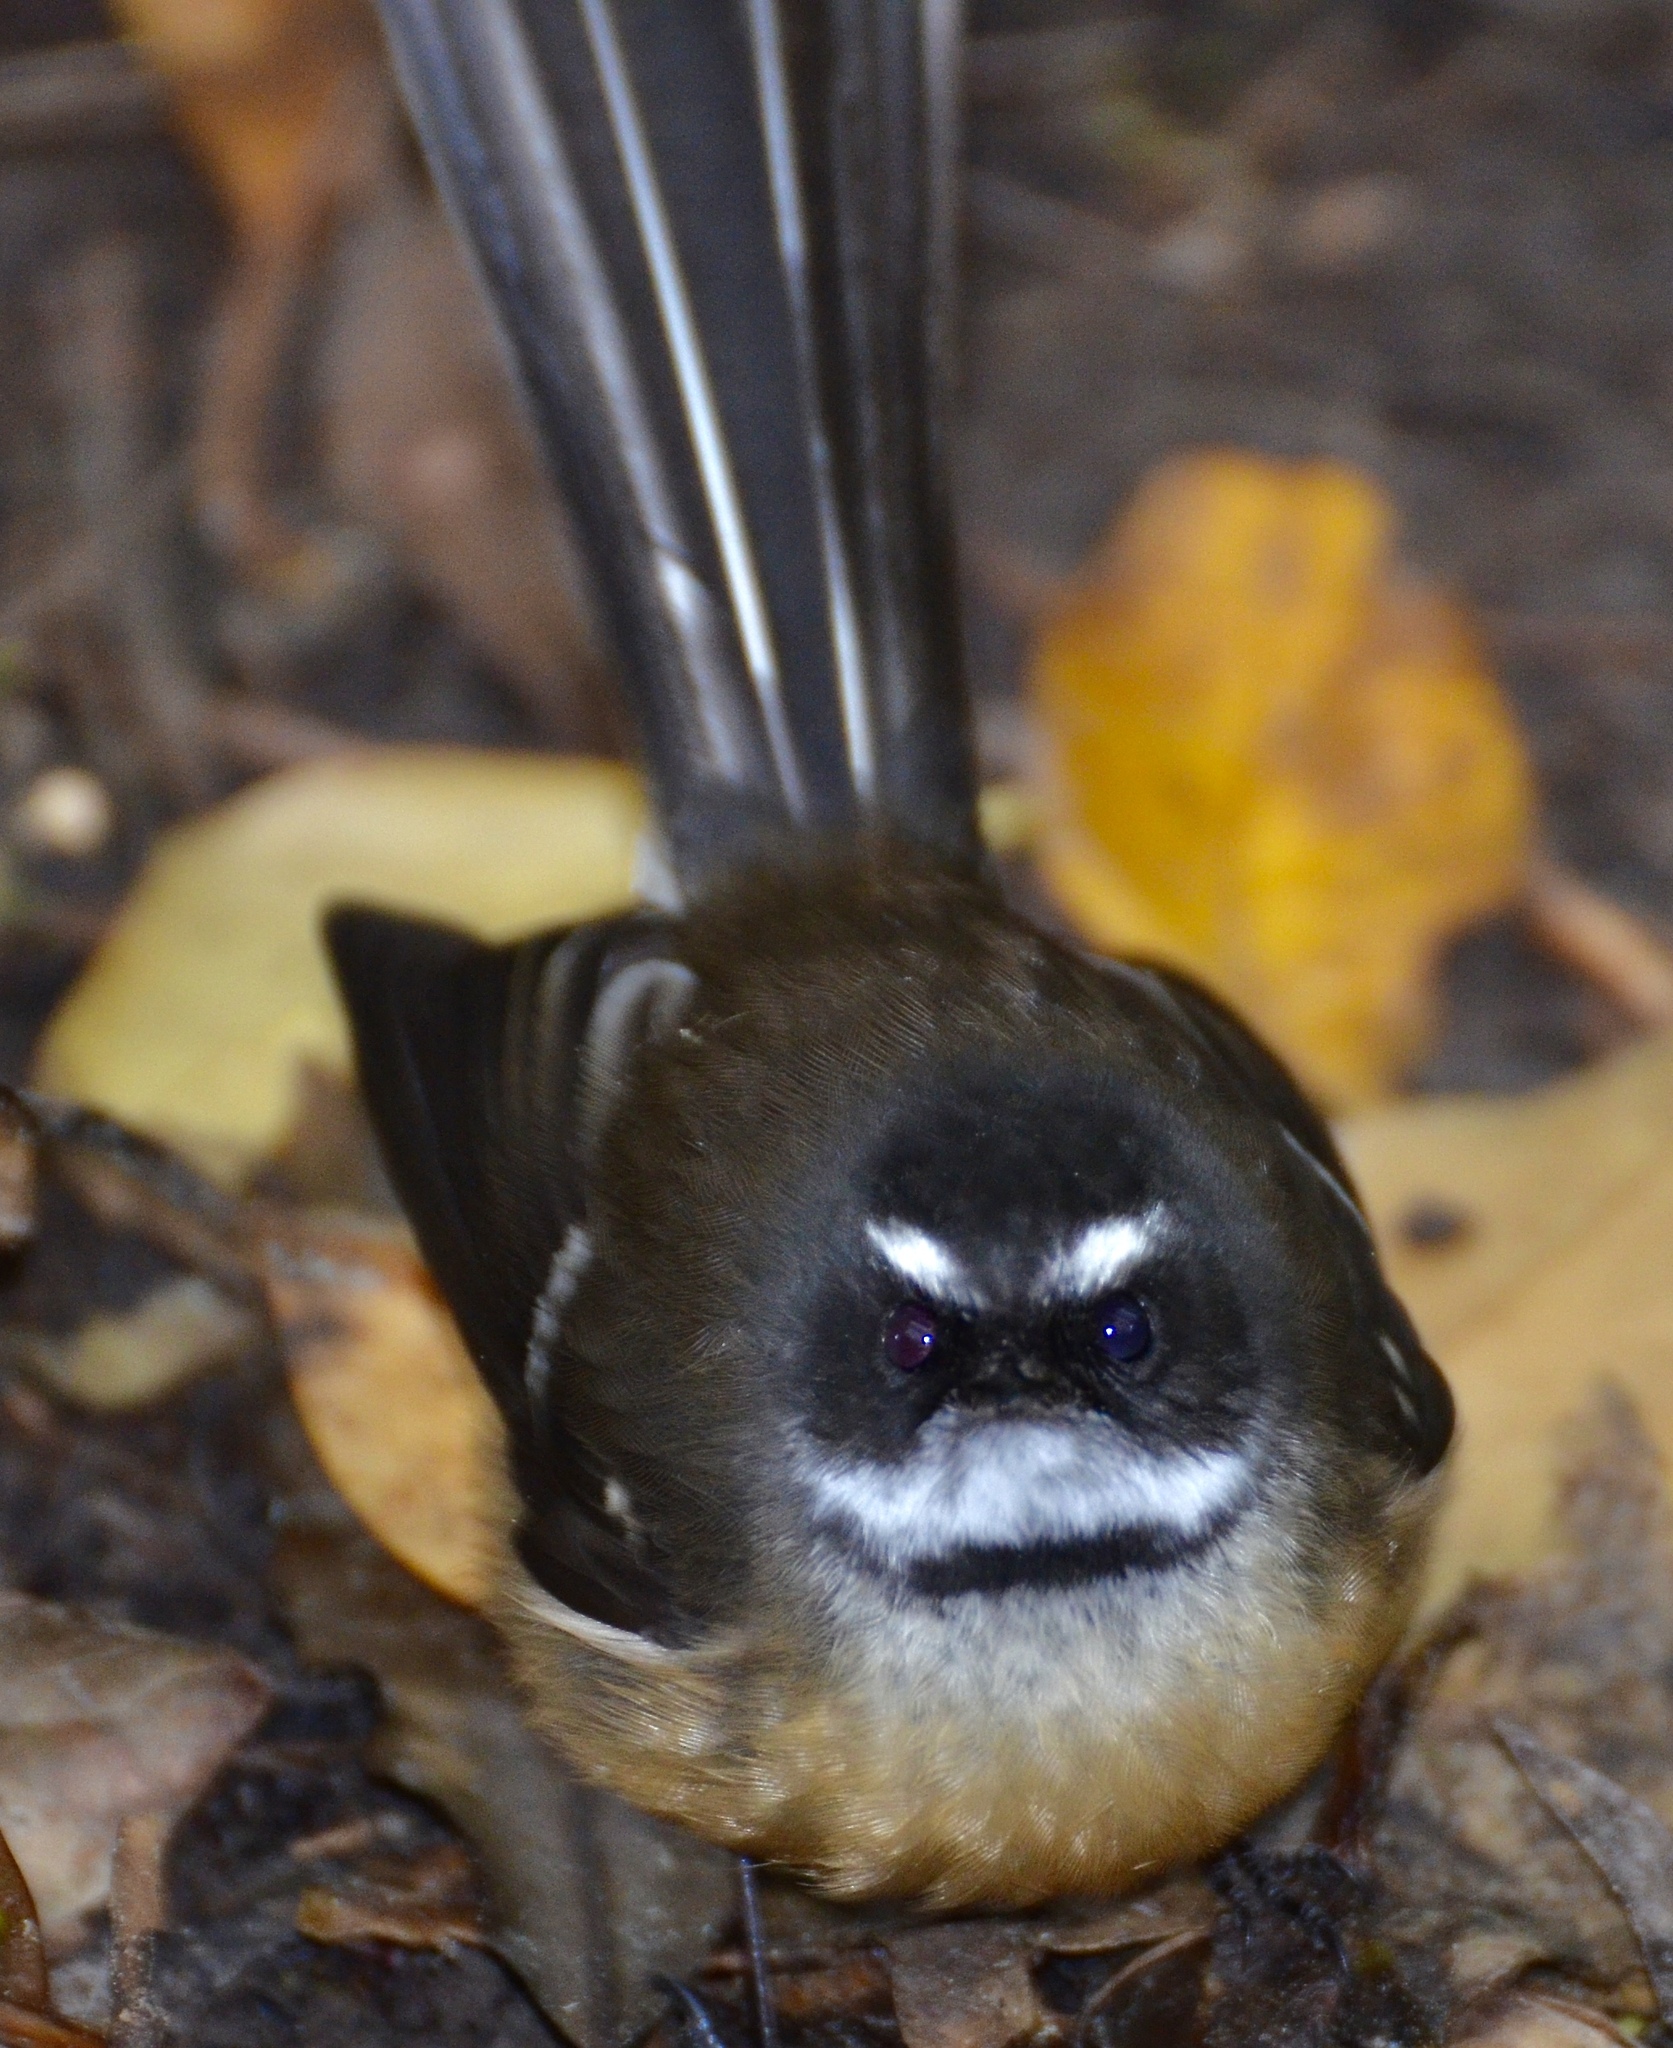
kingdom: Animalia
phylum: Chordata
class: Aves
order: Passeriformes
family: Rhipiduridae
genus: Rhipidura
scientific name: Rhipidura fuliginosa
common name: New zealand fantail
